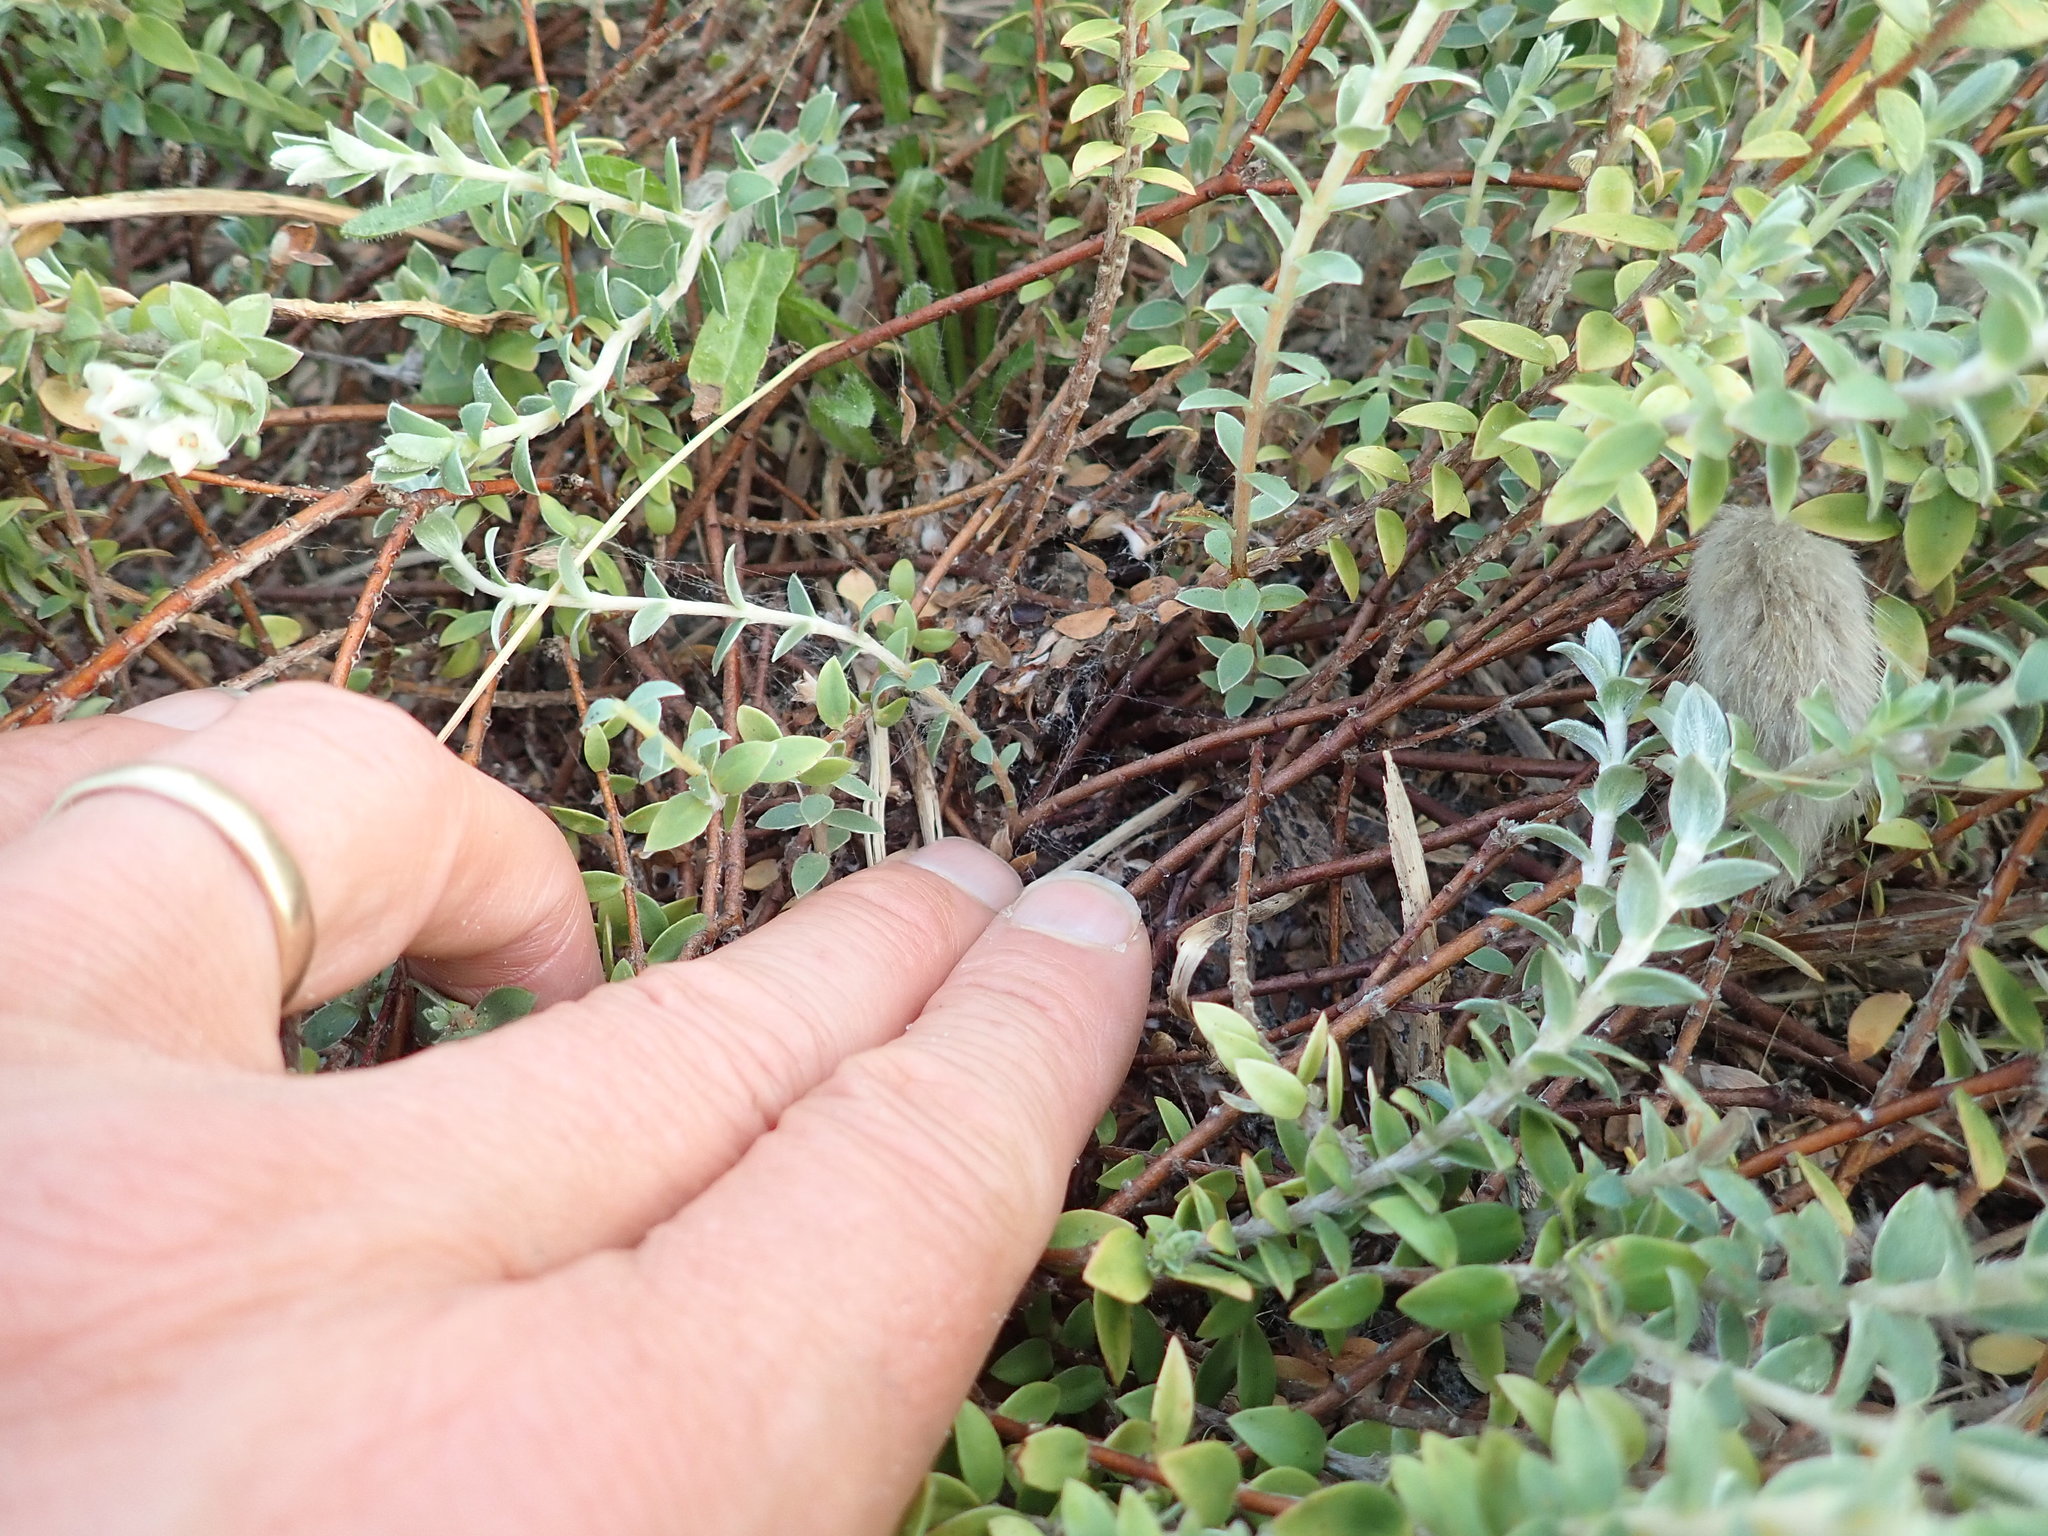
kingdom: Animalia
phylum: Arthropoda
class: Arachnida
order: Araneae
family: Theridiidae
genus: Latrodectus
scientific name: Latrodectus katipo
